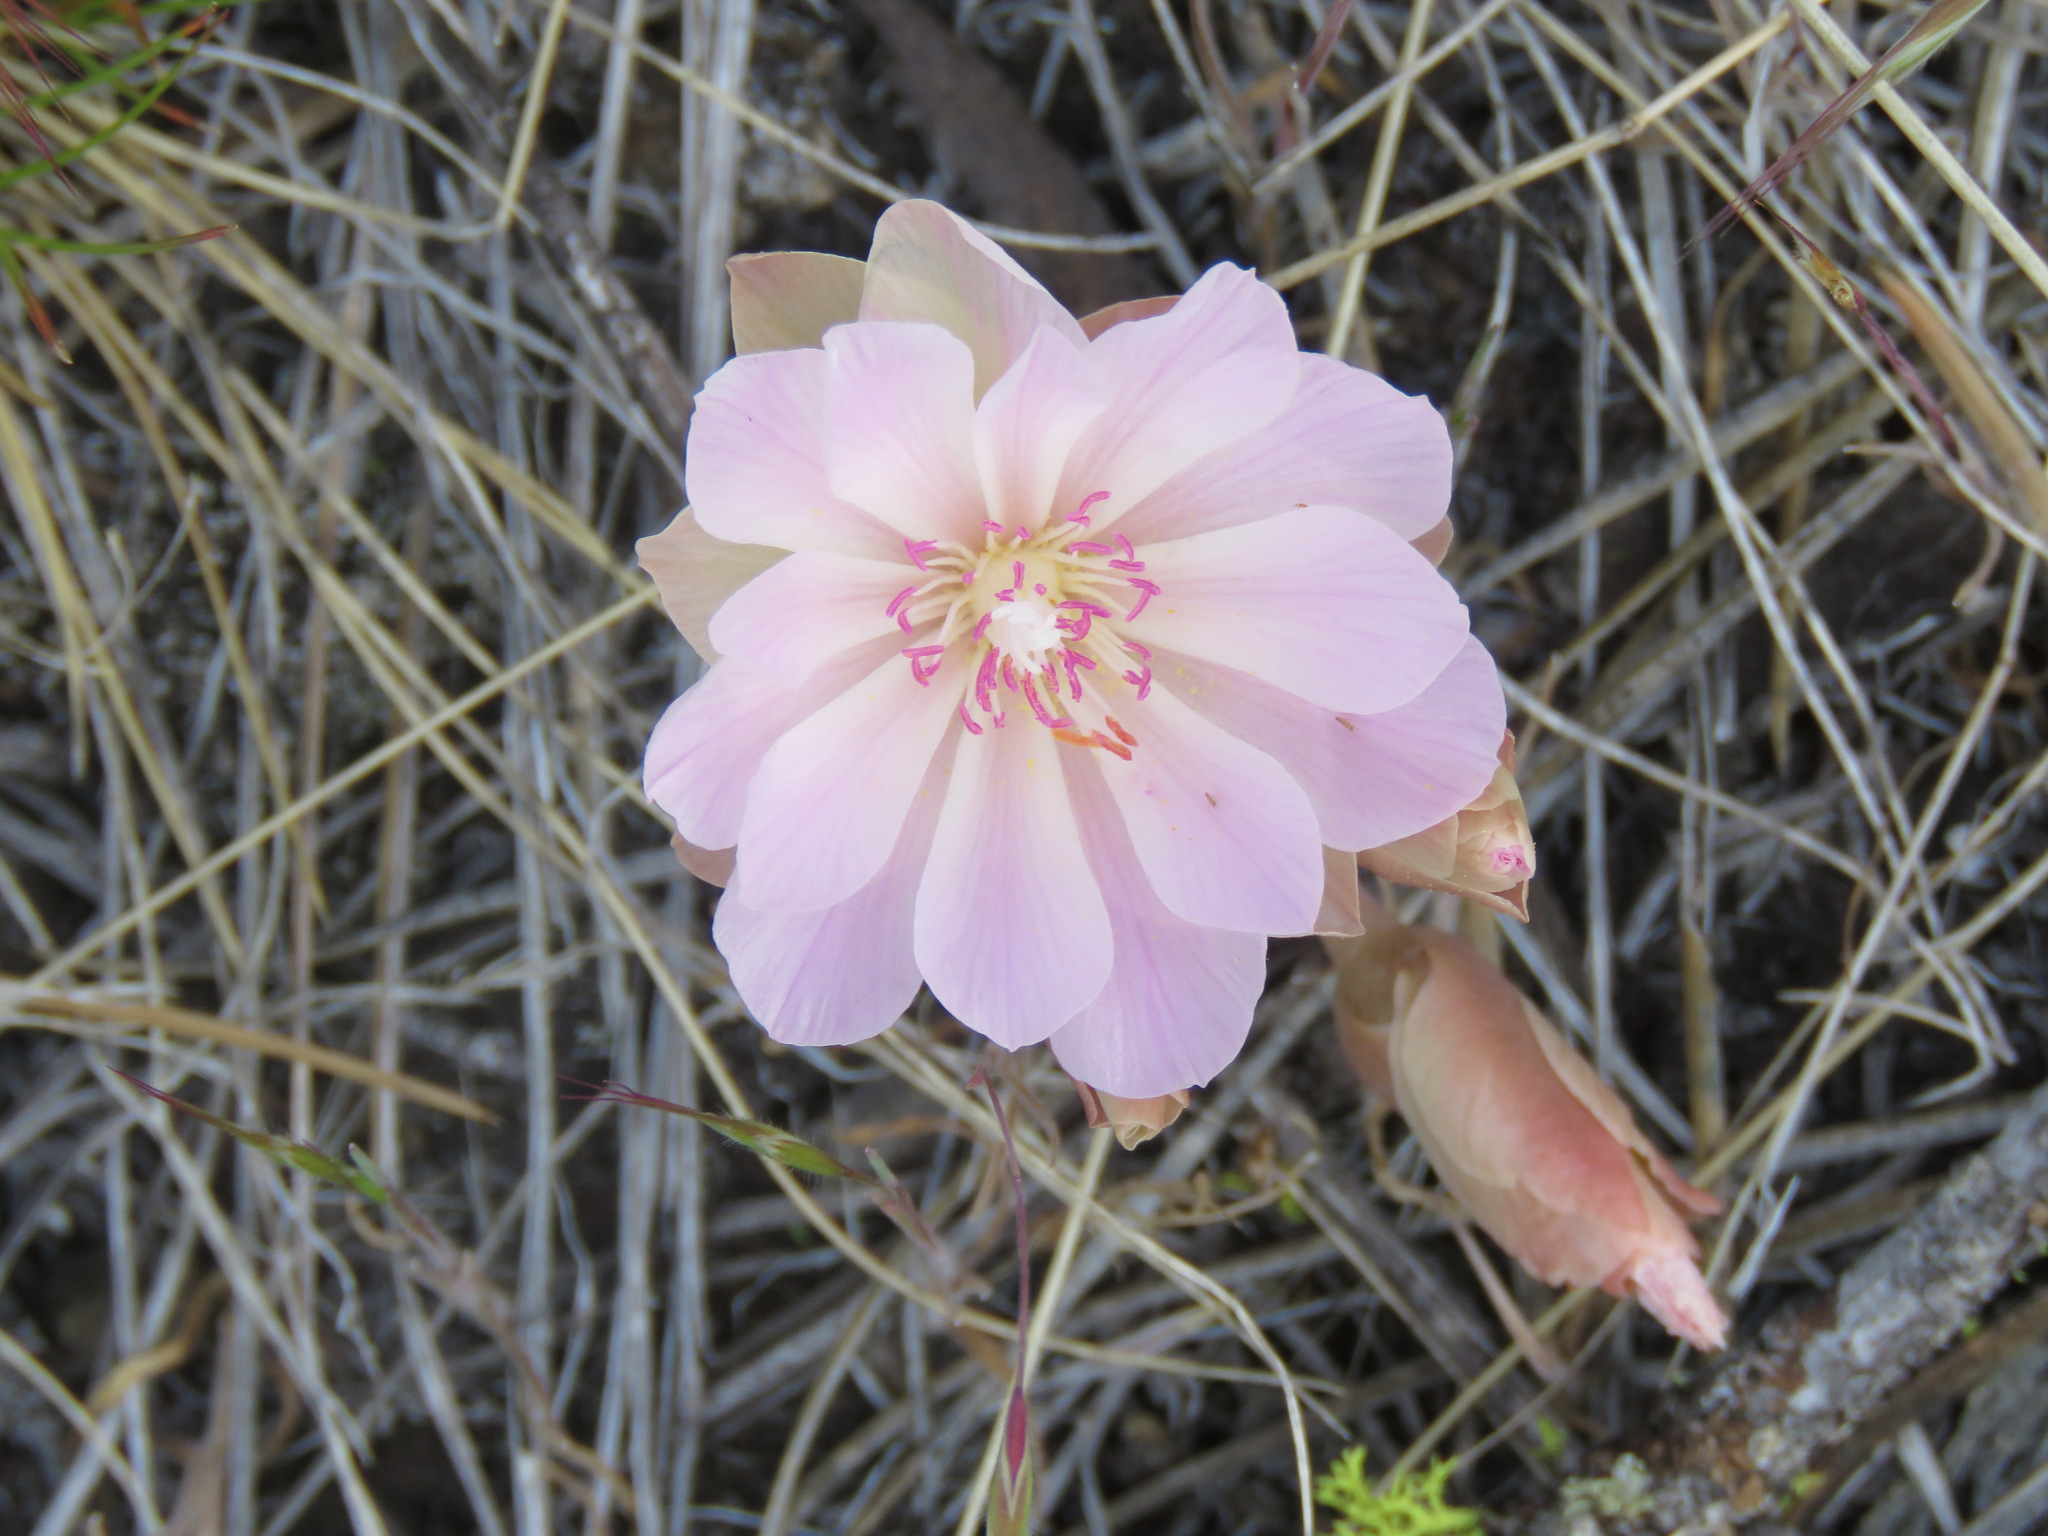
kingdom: Plantae
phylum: Tracheophyta
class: Magnoliopsida
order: Caryophyllales
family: Montiaceae
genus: Lewisia
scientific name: Lewisia rediviva
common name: Bitter-root
